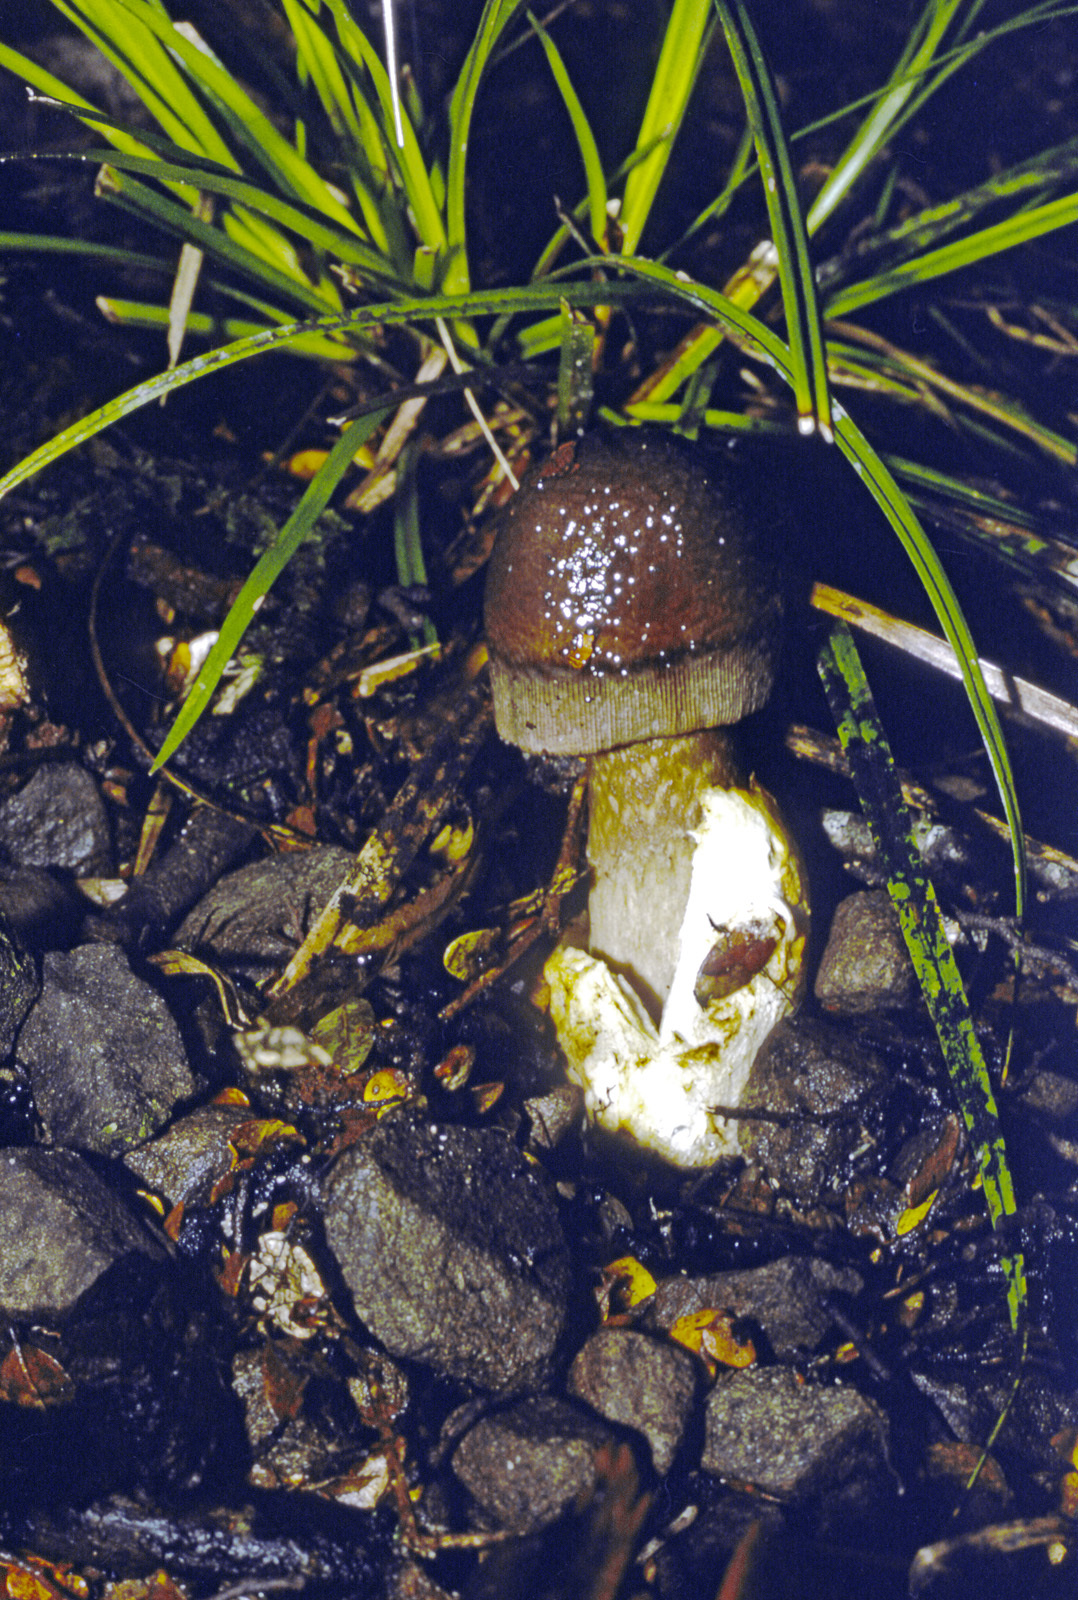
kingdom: Fungi
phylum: Basidiomycota
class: Agaricomycetes
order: Agaricales
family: Amanitaceae
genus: Amanita
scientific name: Amanita pekeoides
